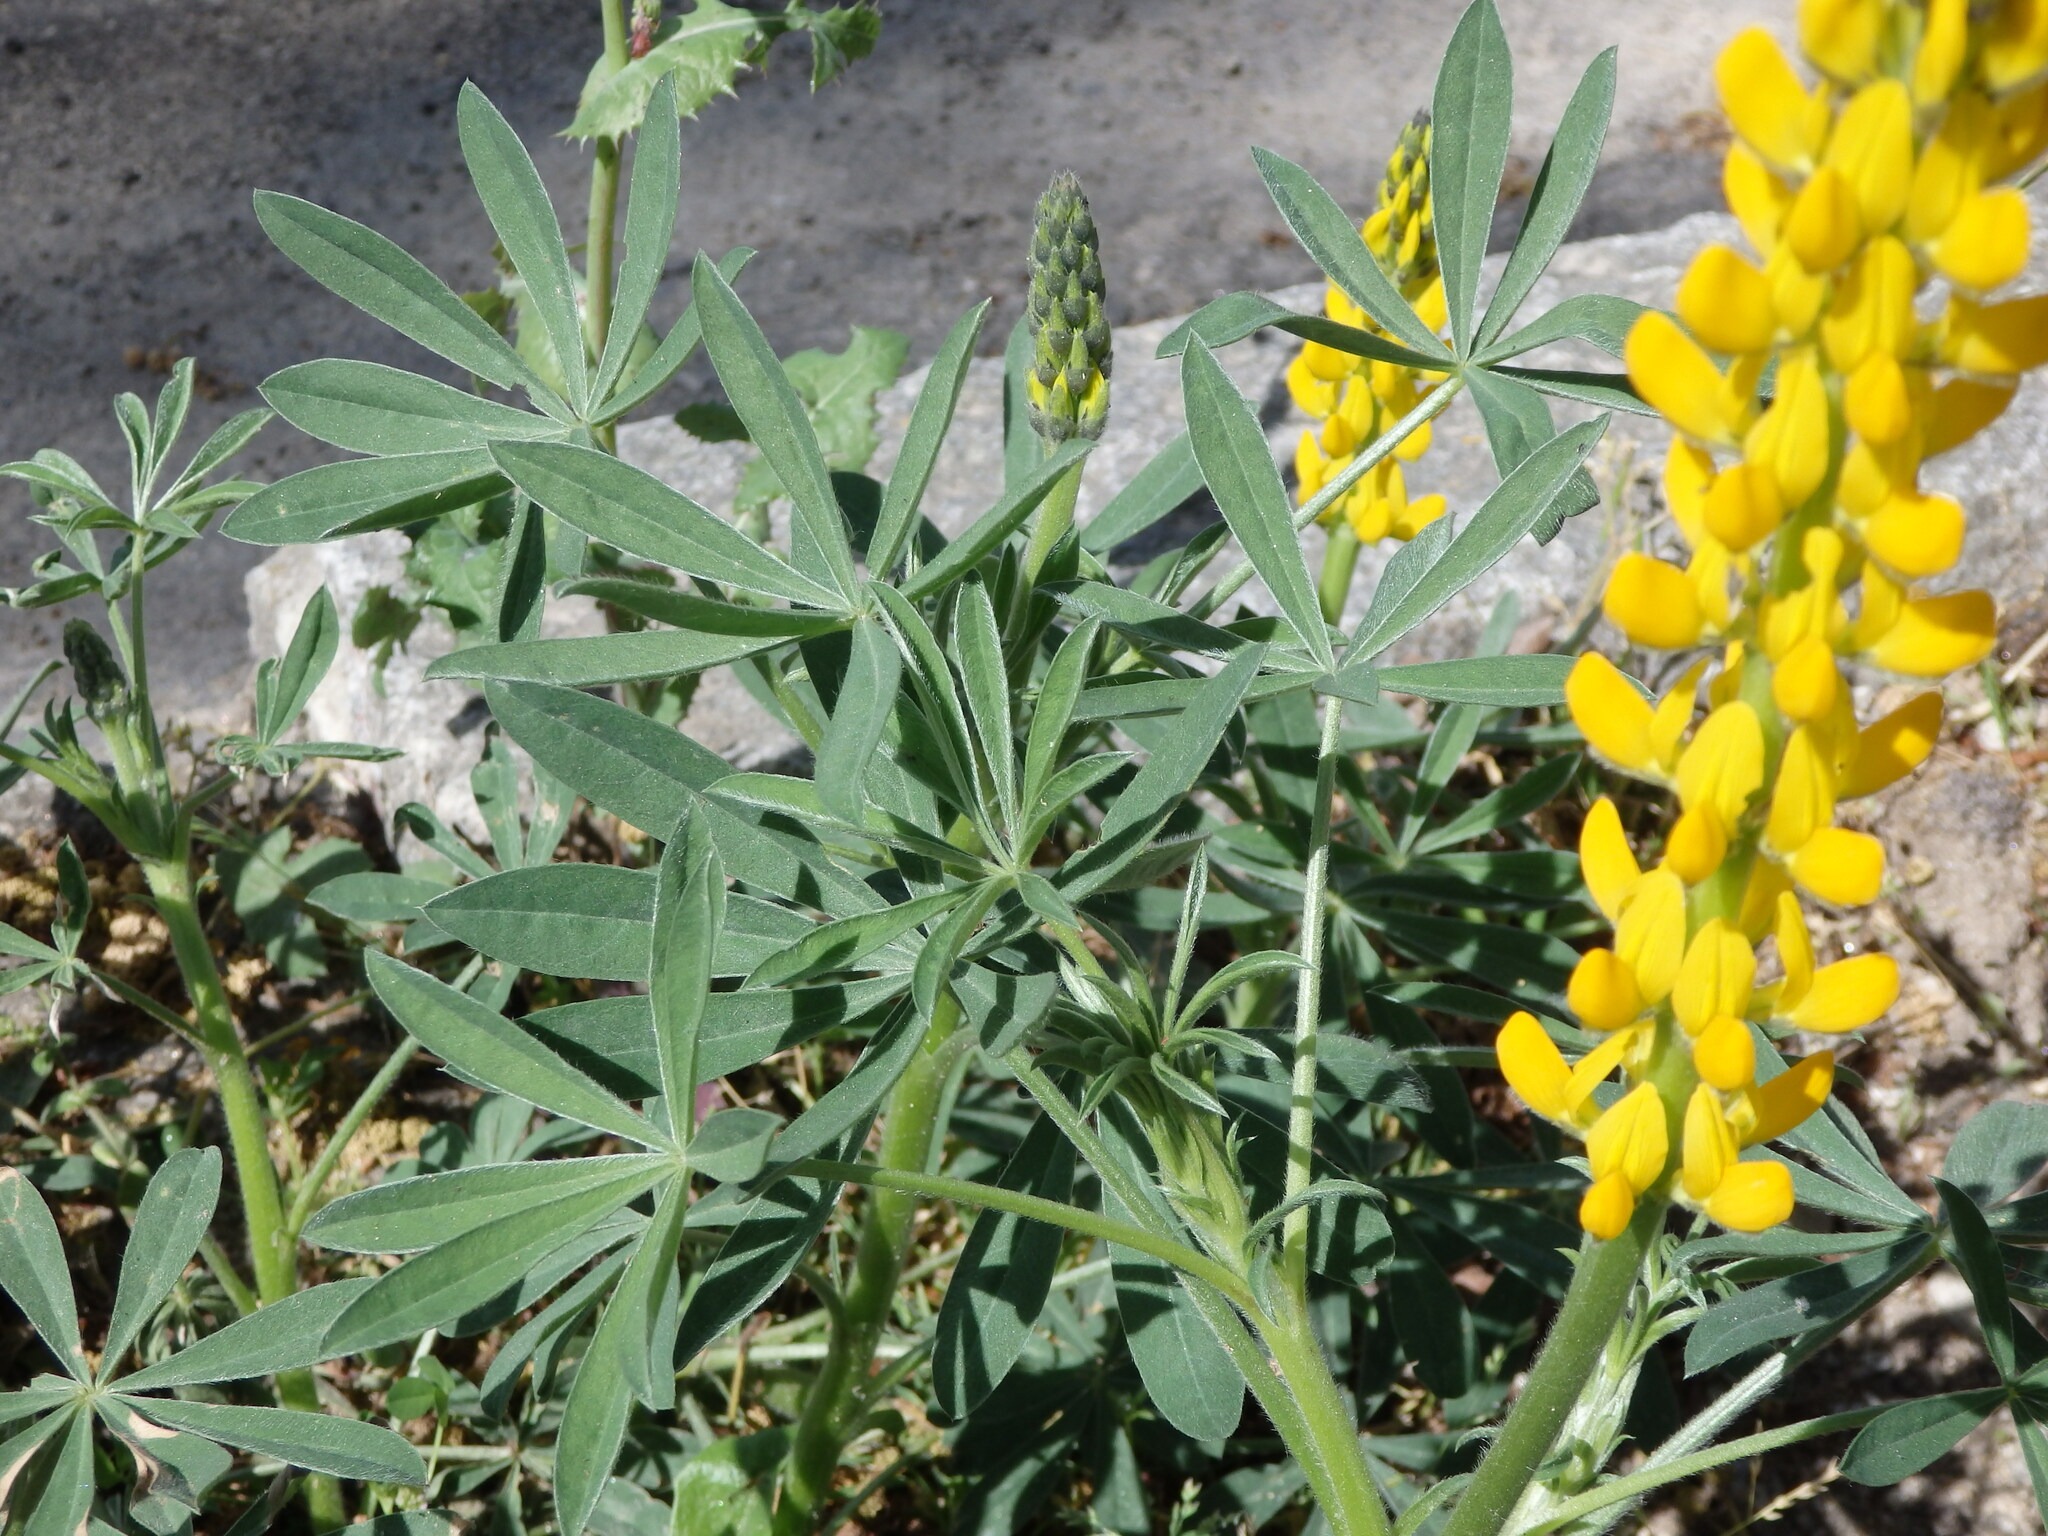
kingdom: Plantae
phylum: Tracheophyta
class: Magnoliopsida
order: Fabales
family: Fabaceae
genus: Lupinus
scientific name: Lupinus luteus
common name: European yellow lupine
